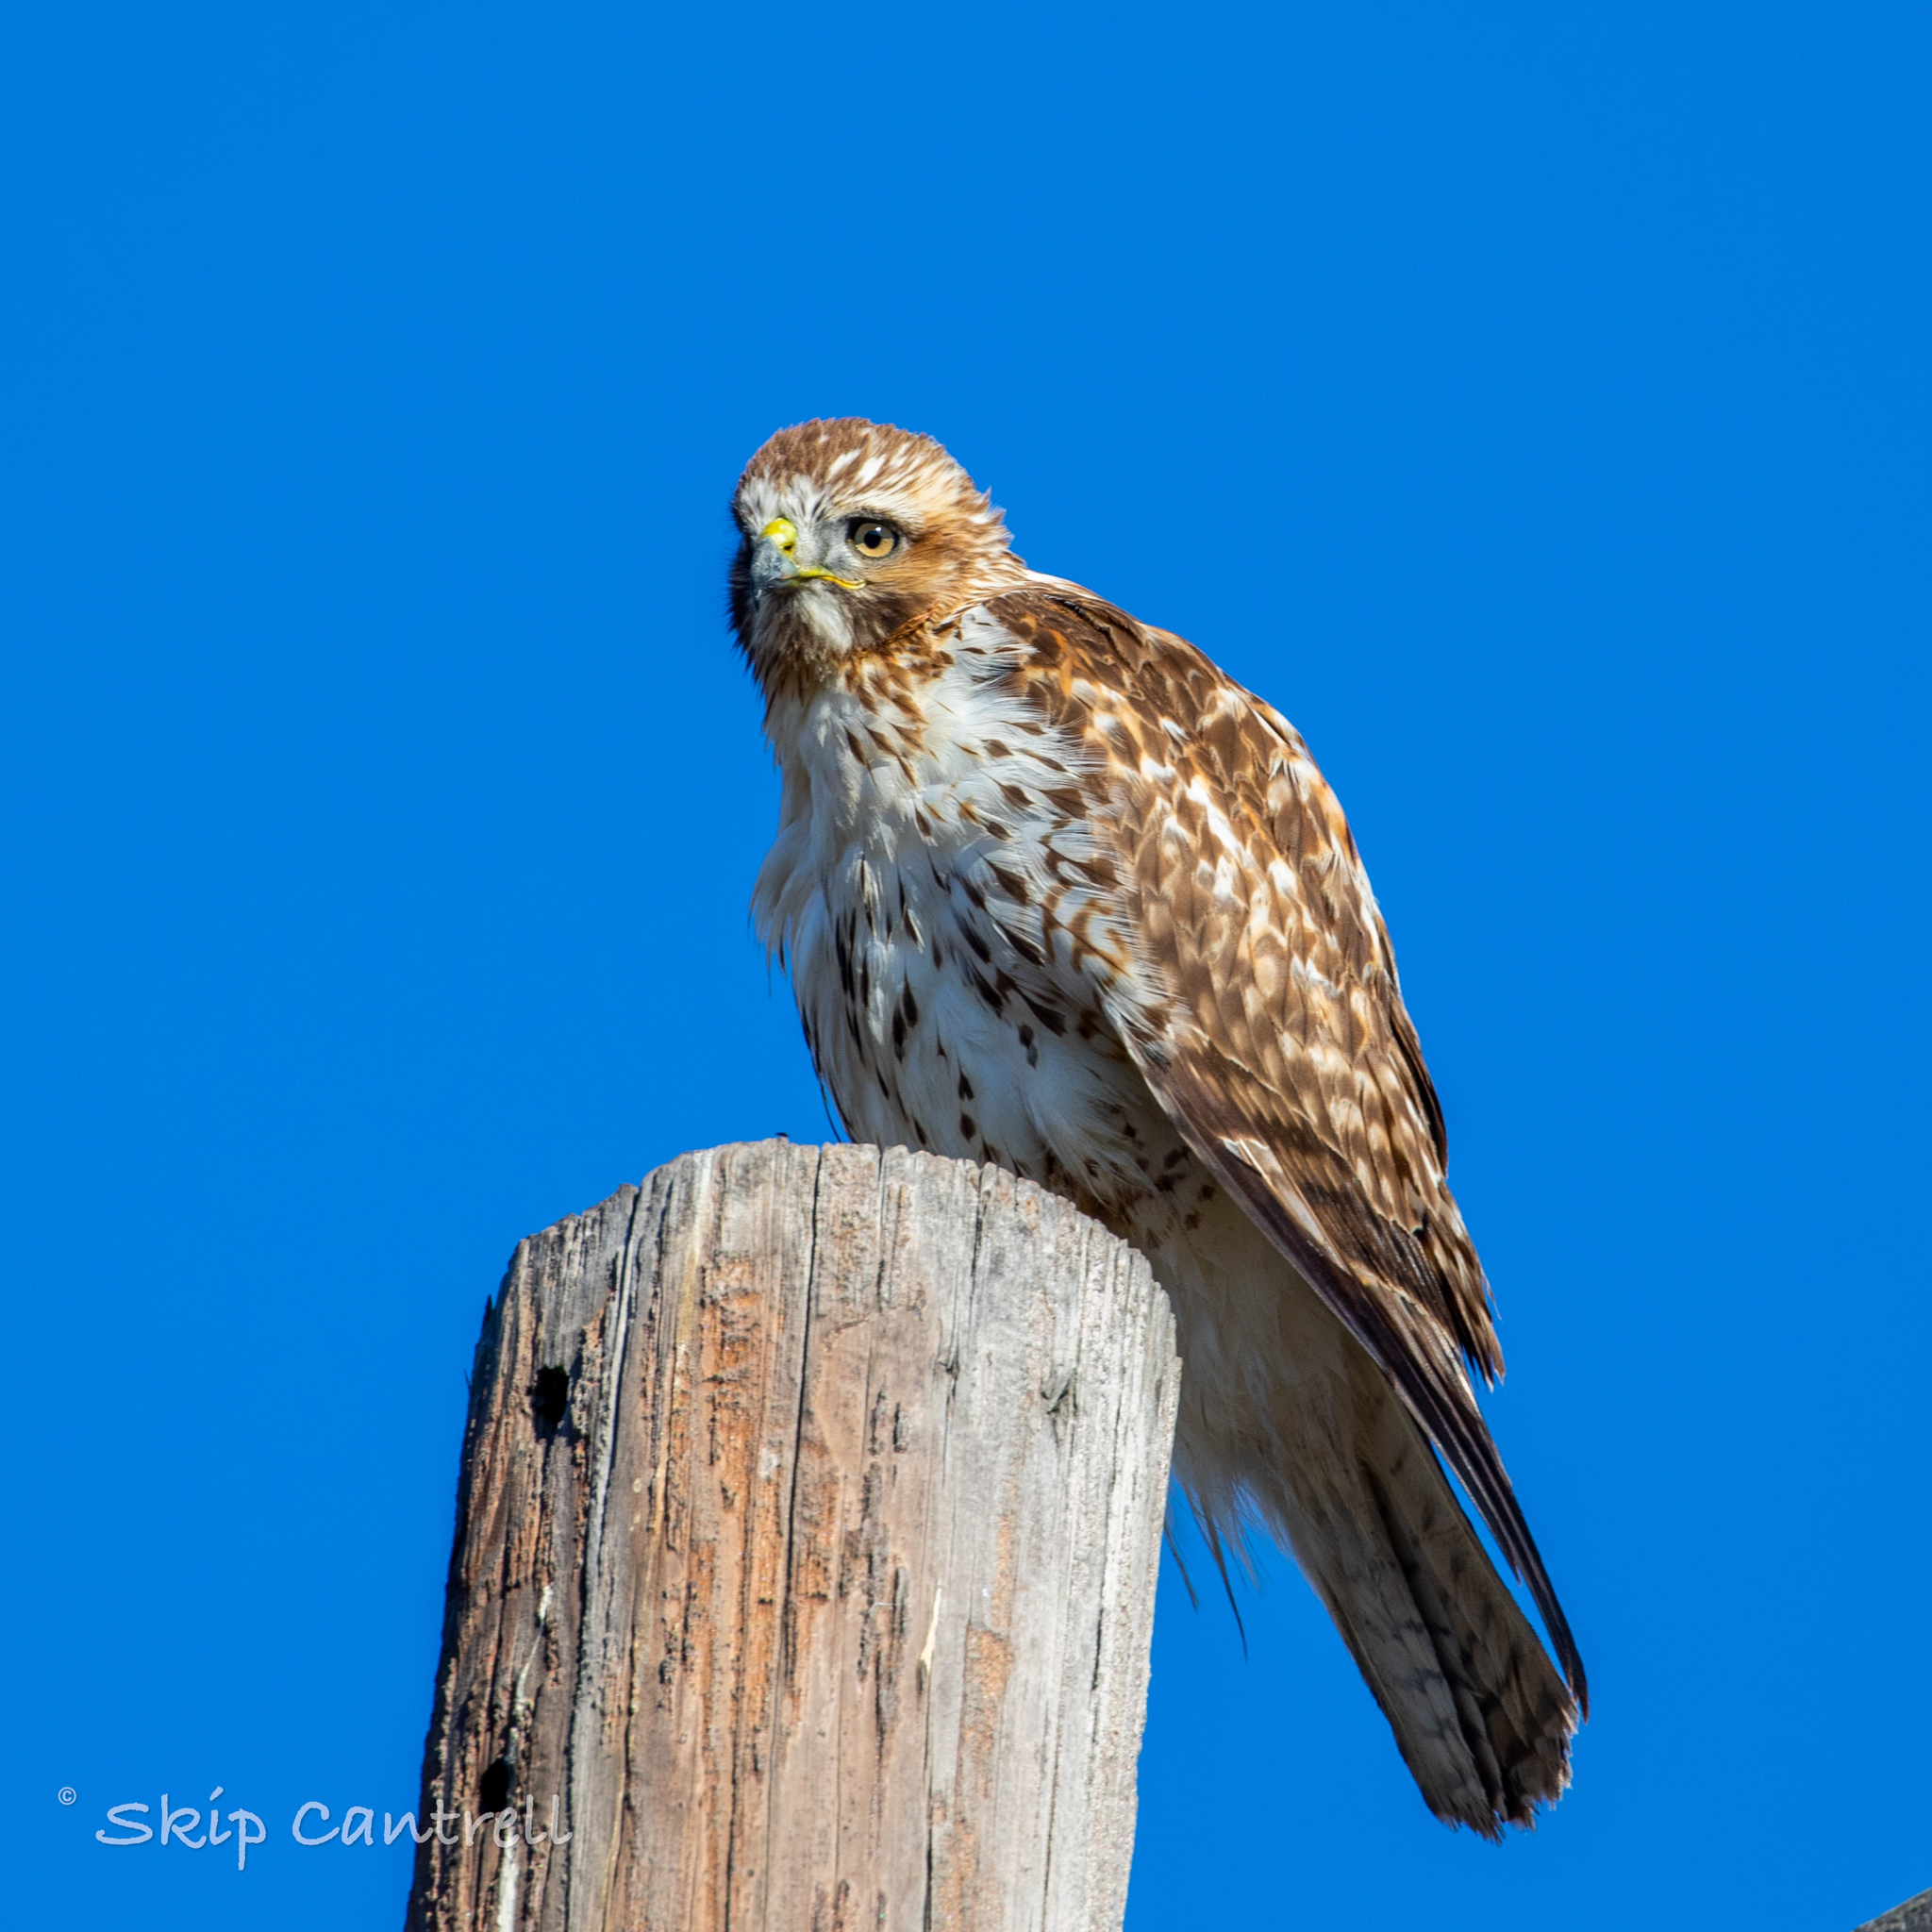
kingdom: Animalia
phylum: Chordata
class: Aves
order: Accipitriformes
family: Accipitridae
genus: Buteo
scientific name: Buteo jamaicensis
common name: Red-tailed hawk
